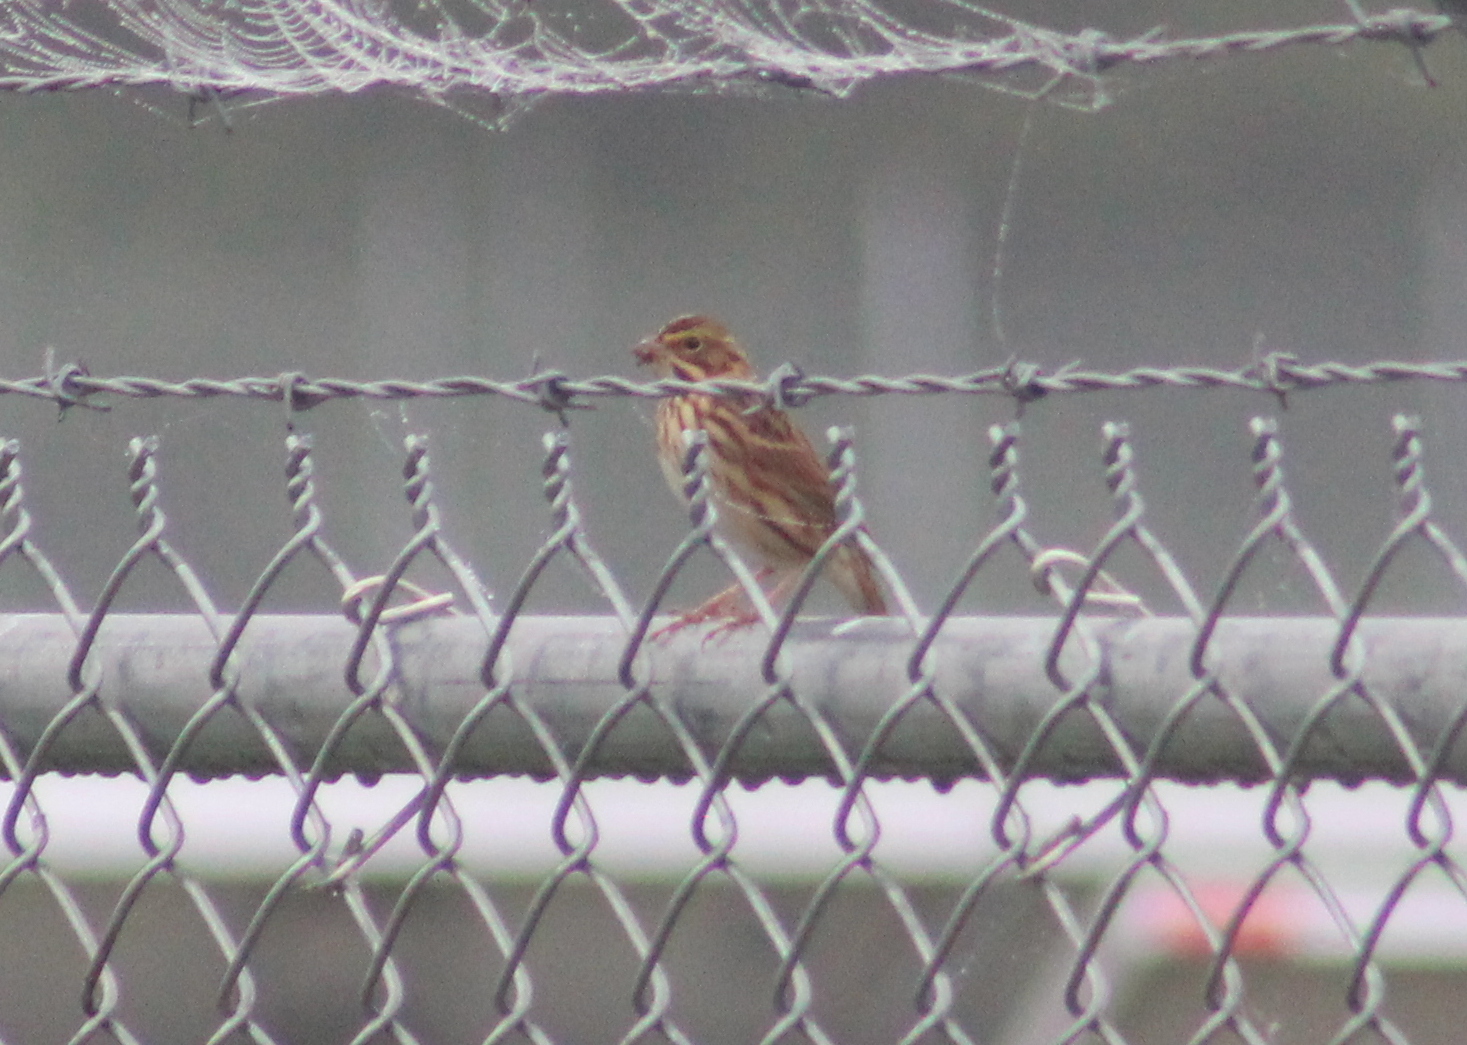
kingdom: Animalia
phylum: Chordata
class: Aves
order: Passeriformes
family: Passerellidae
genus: Passerculus
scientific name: Passerculus sandwichensis
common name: Savannah sparrow
